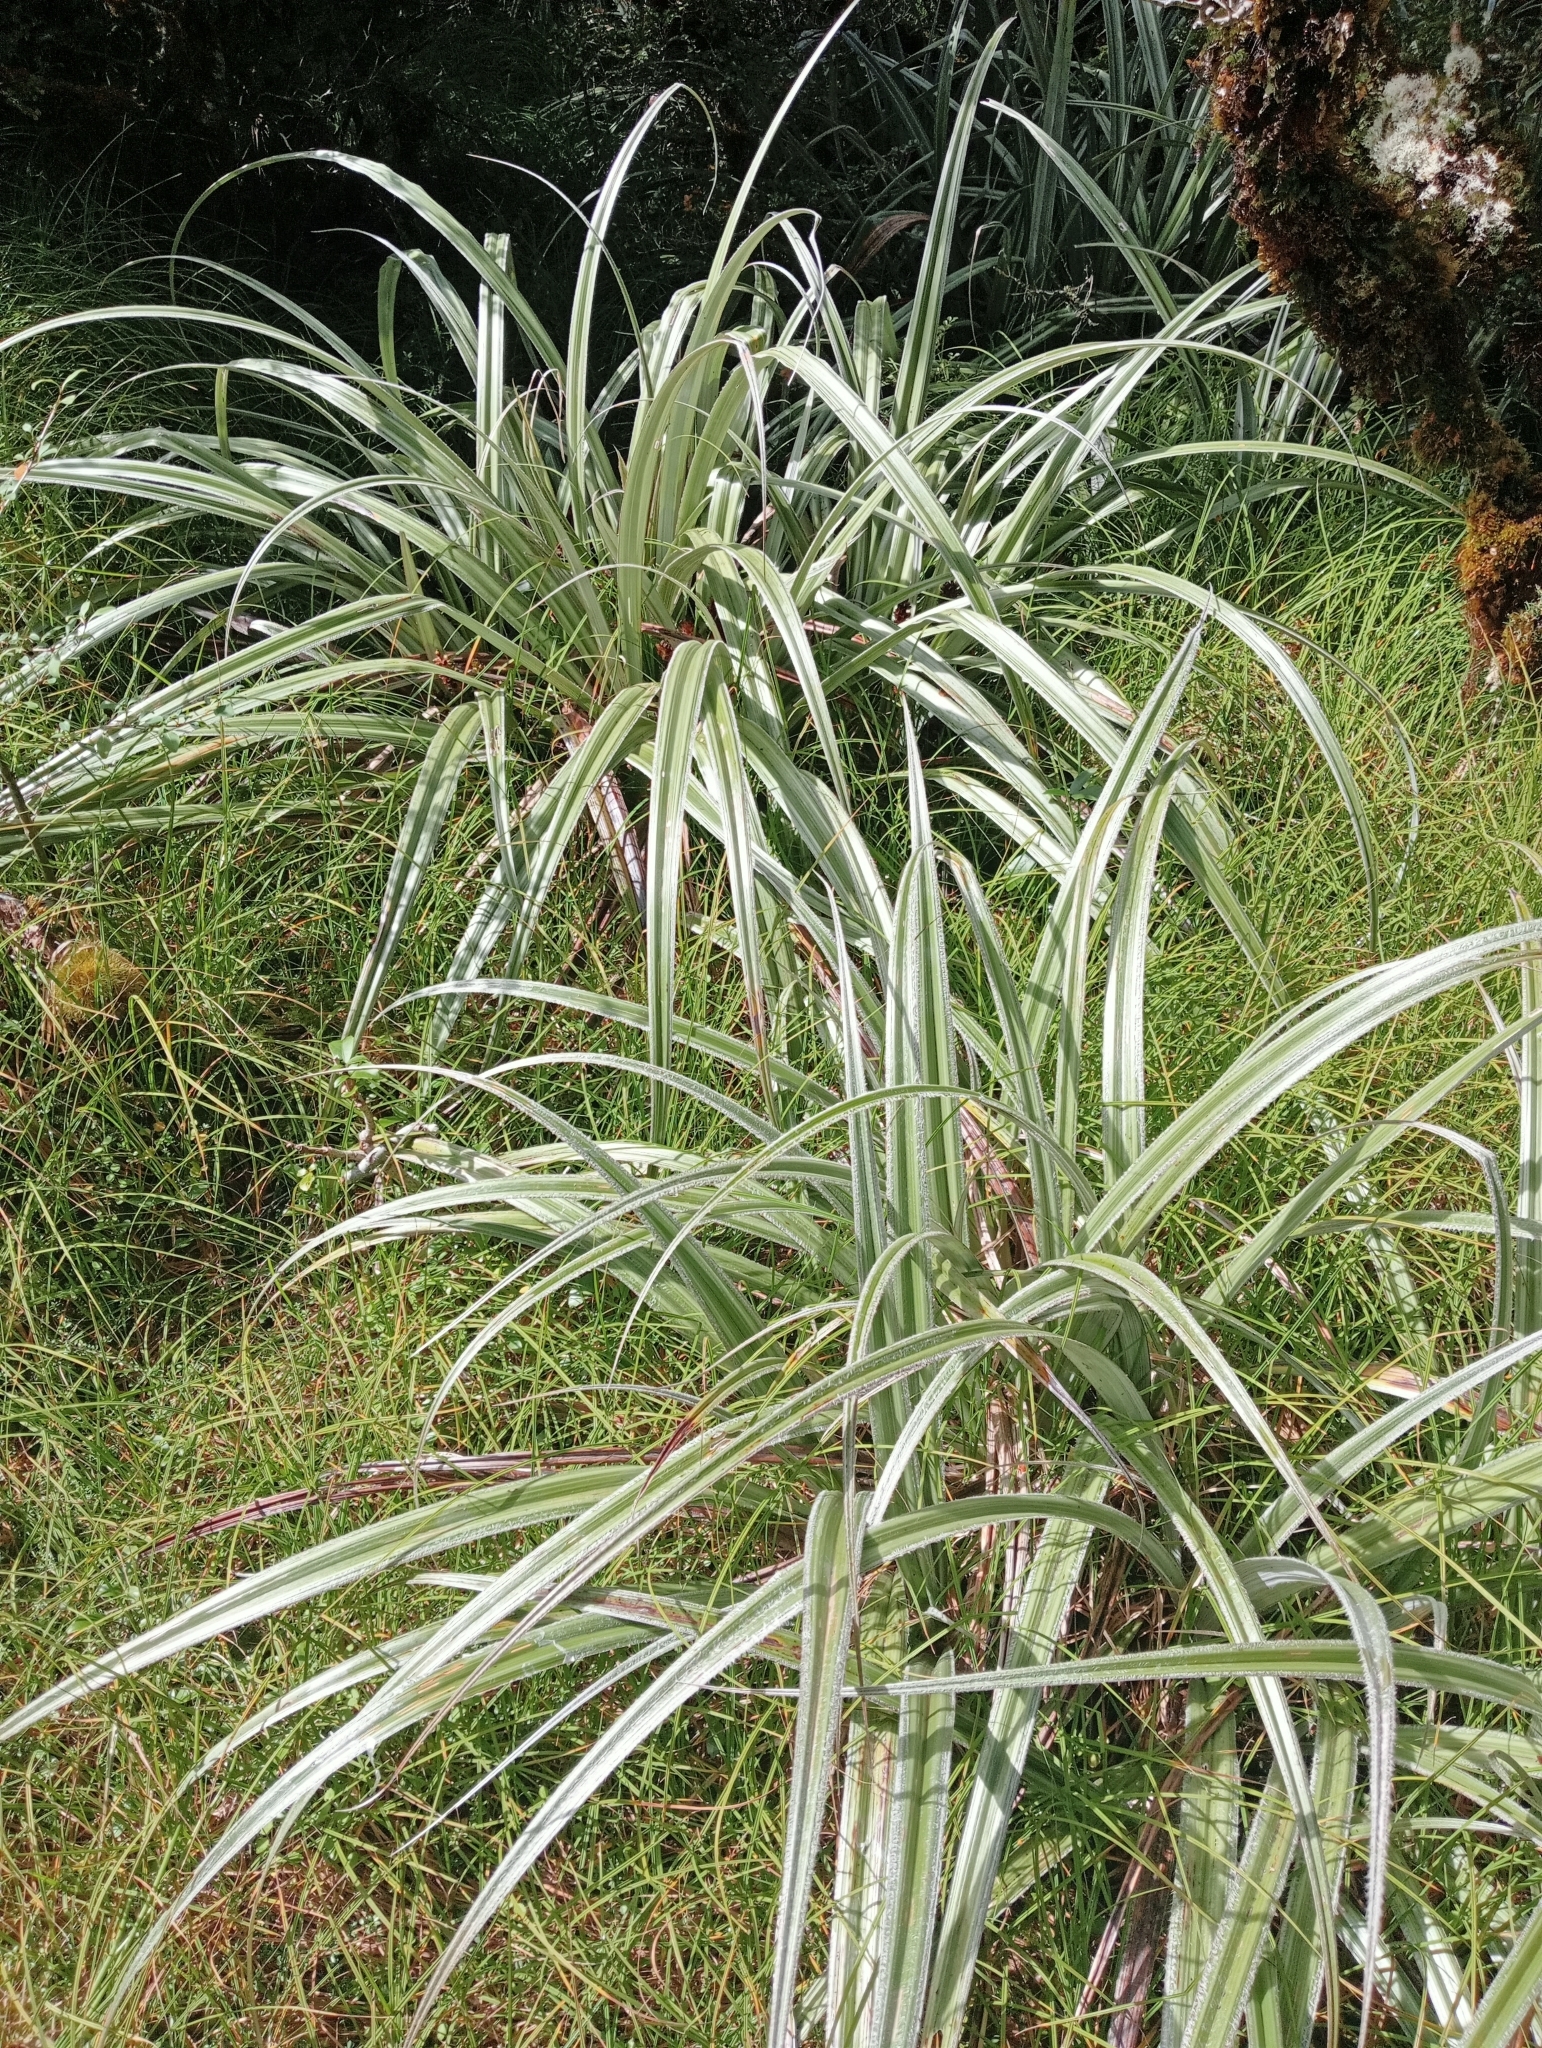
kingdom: Plantae
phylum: Tracheophyta
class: Liliopsida
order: Asparagales
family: Asteliaceae
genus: Astelia
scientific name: Astelia nervosa
